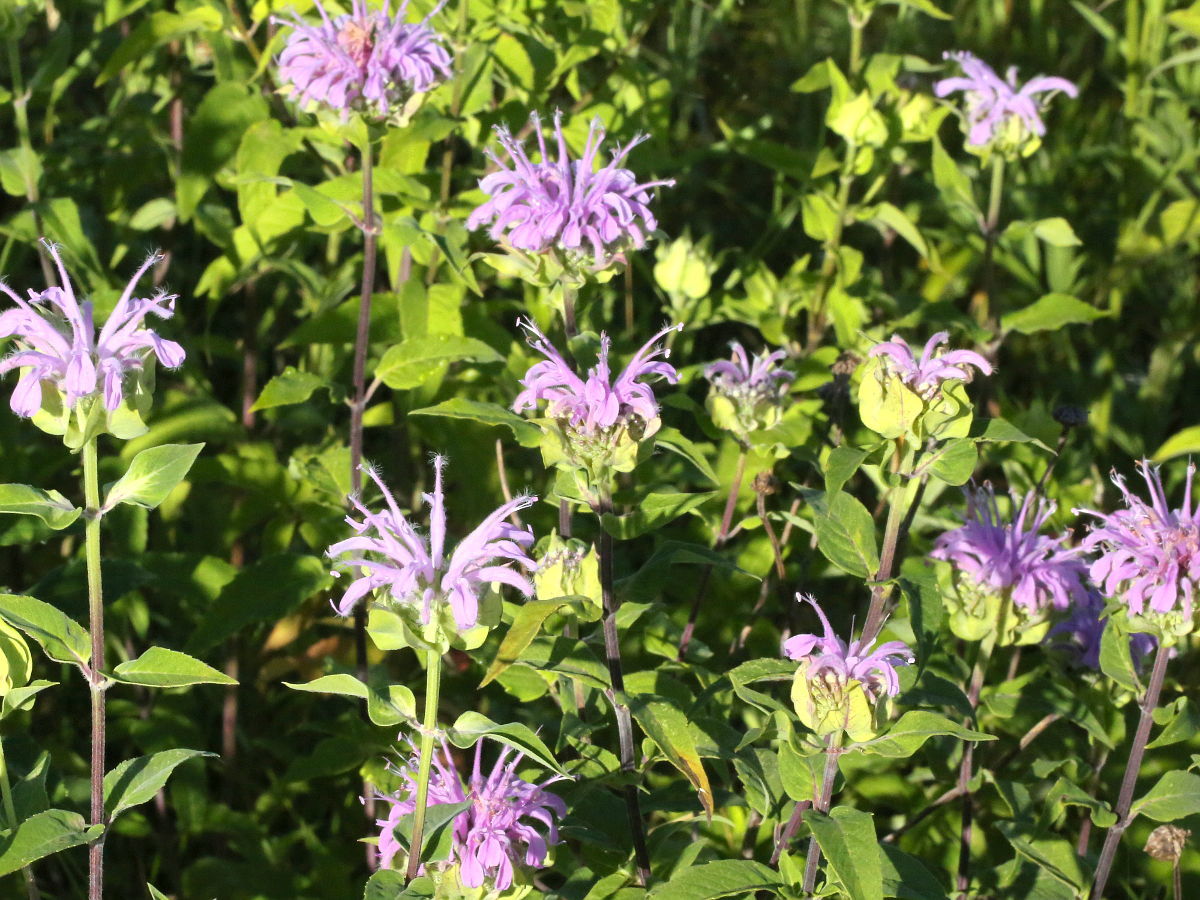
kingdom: Plantae
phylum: Tracheophyta
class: Magnoliopsida
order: Lamiales
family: Lamiaceae
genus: Monarda
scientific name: Monarda fistulosa
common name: Purple beebalm
